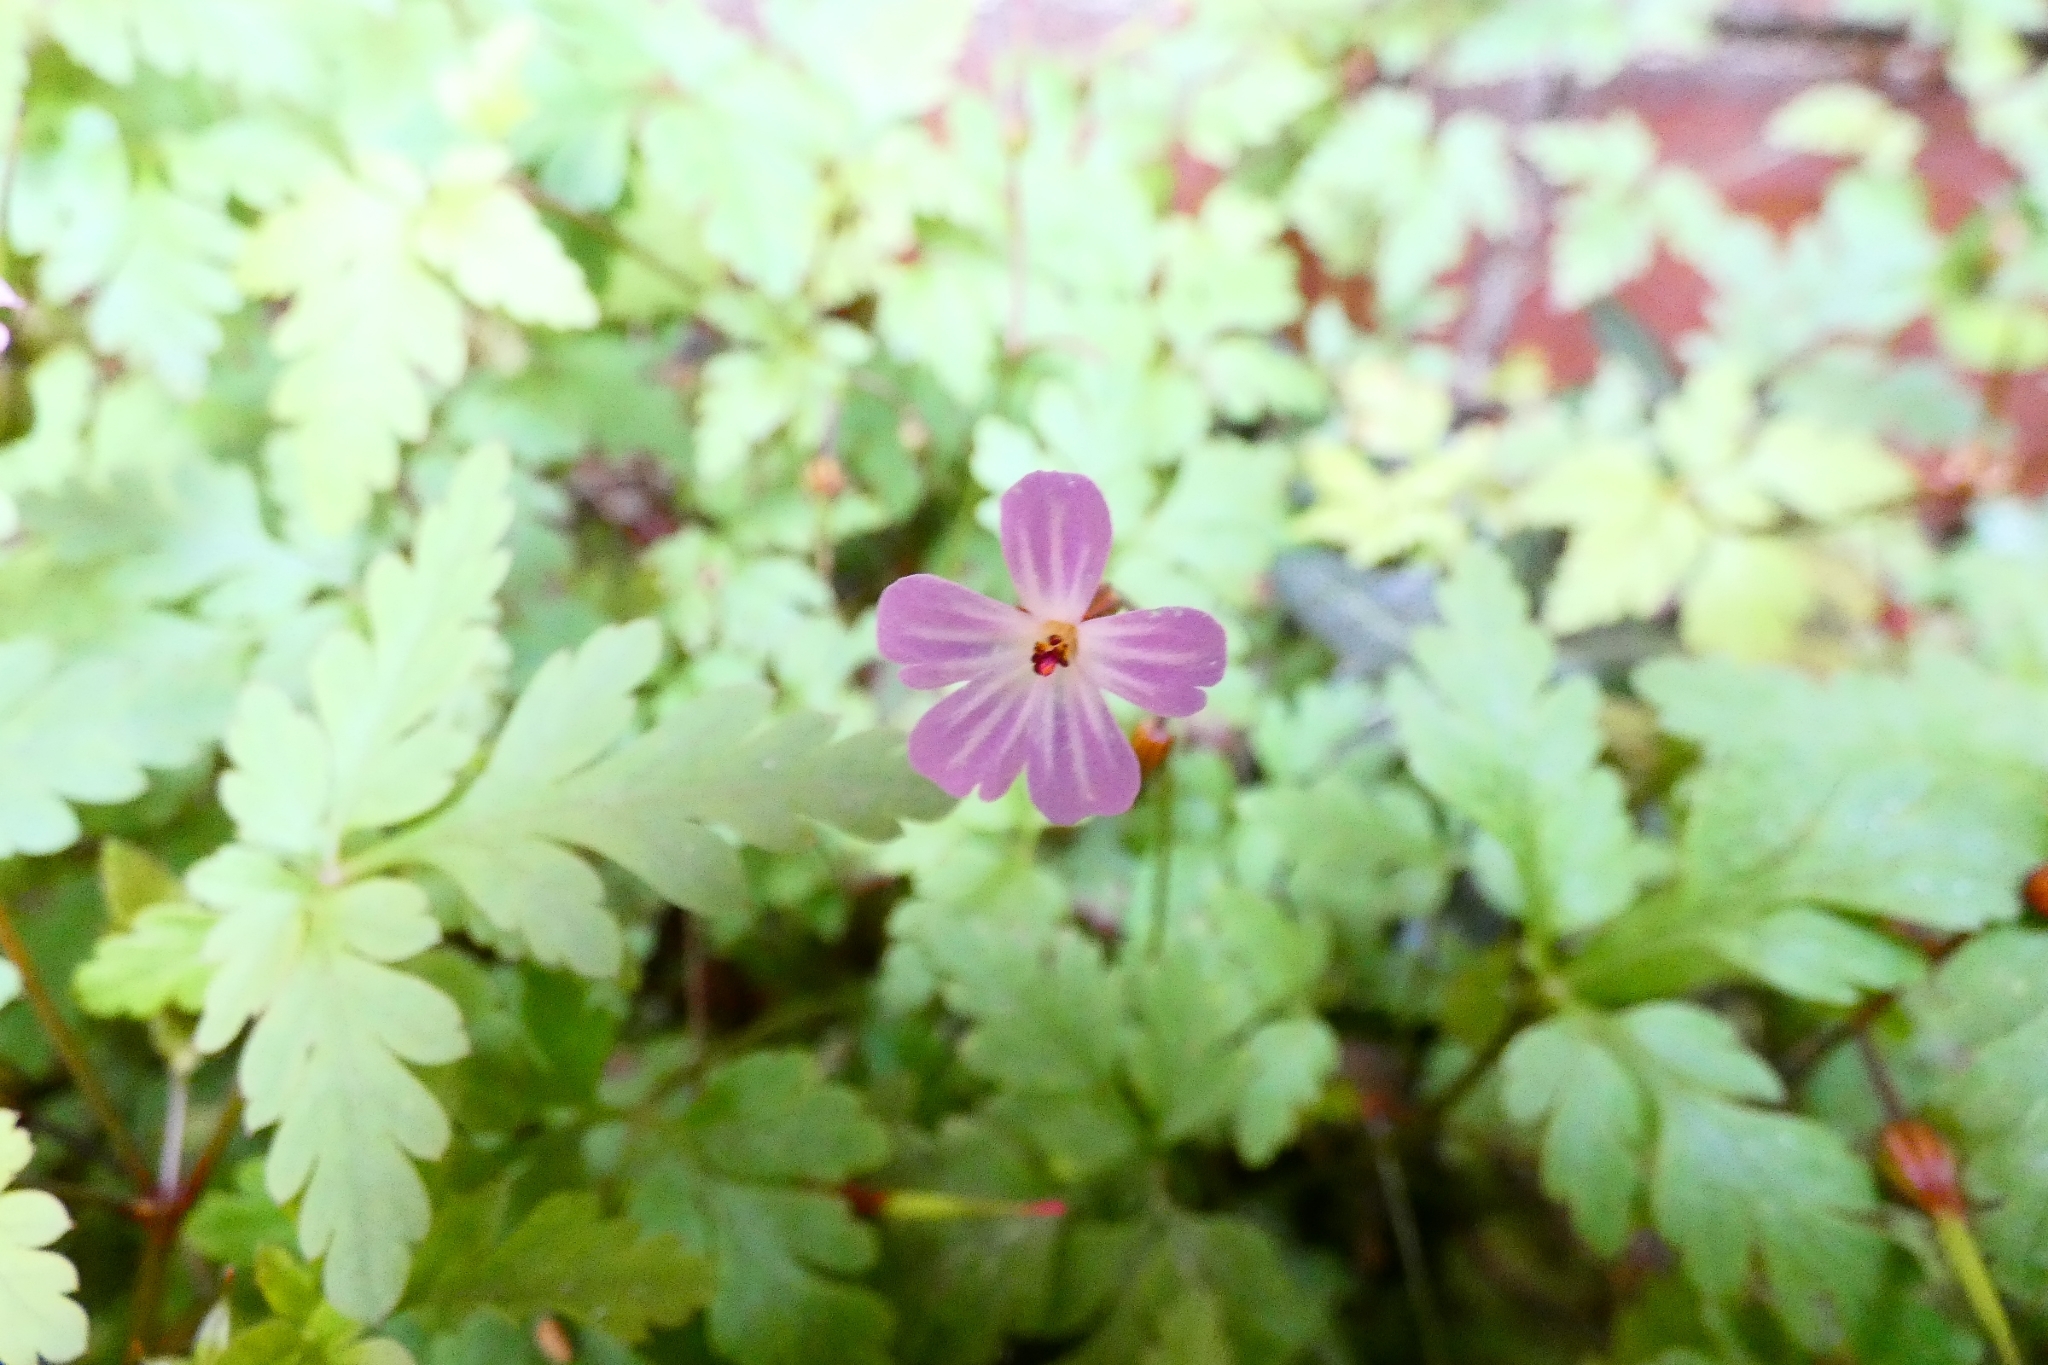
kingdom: Plantae
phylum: Tracheophyta
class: Magnoliopsida
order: Geraniales
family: Geraniaceae
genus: Geranium
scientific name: Geranium robertianum
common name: Herb-robert
